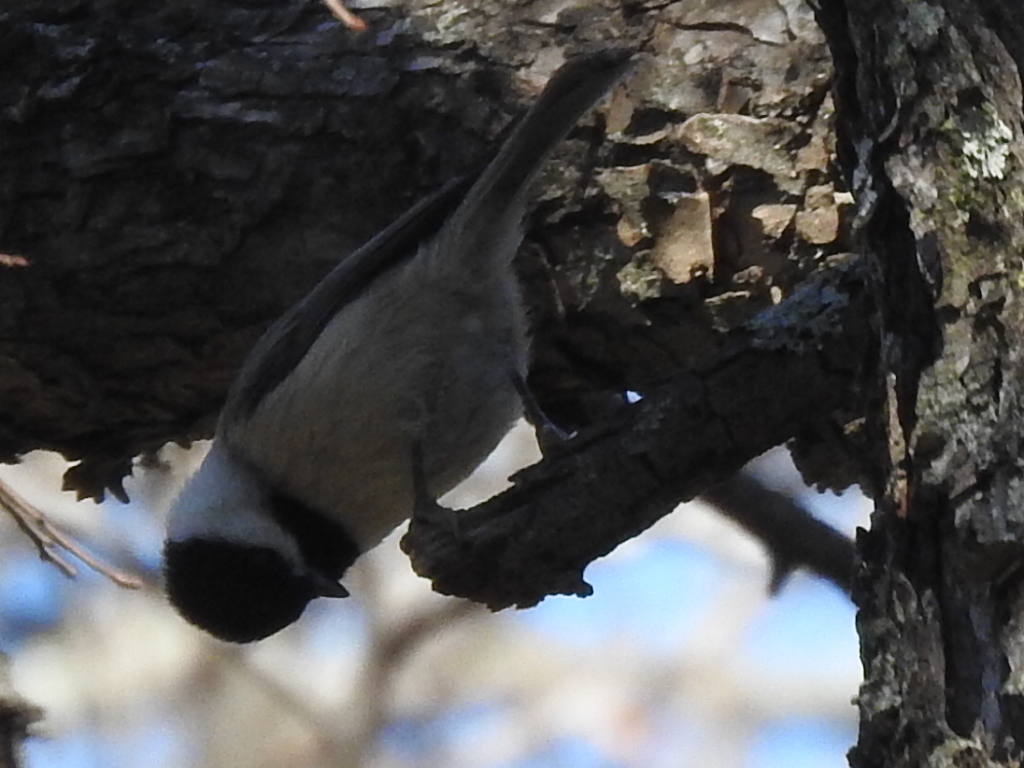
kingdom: Animalia
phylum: Chordata
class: Aves
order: Passeriformes
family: Paridae
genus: Poecile
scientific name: Poecile carolinensis
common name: Carolina chickadee
